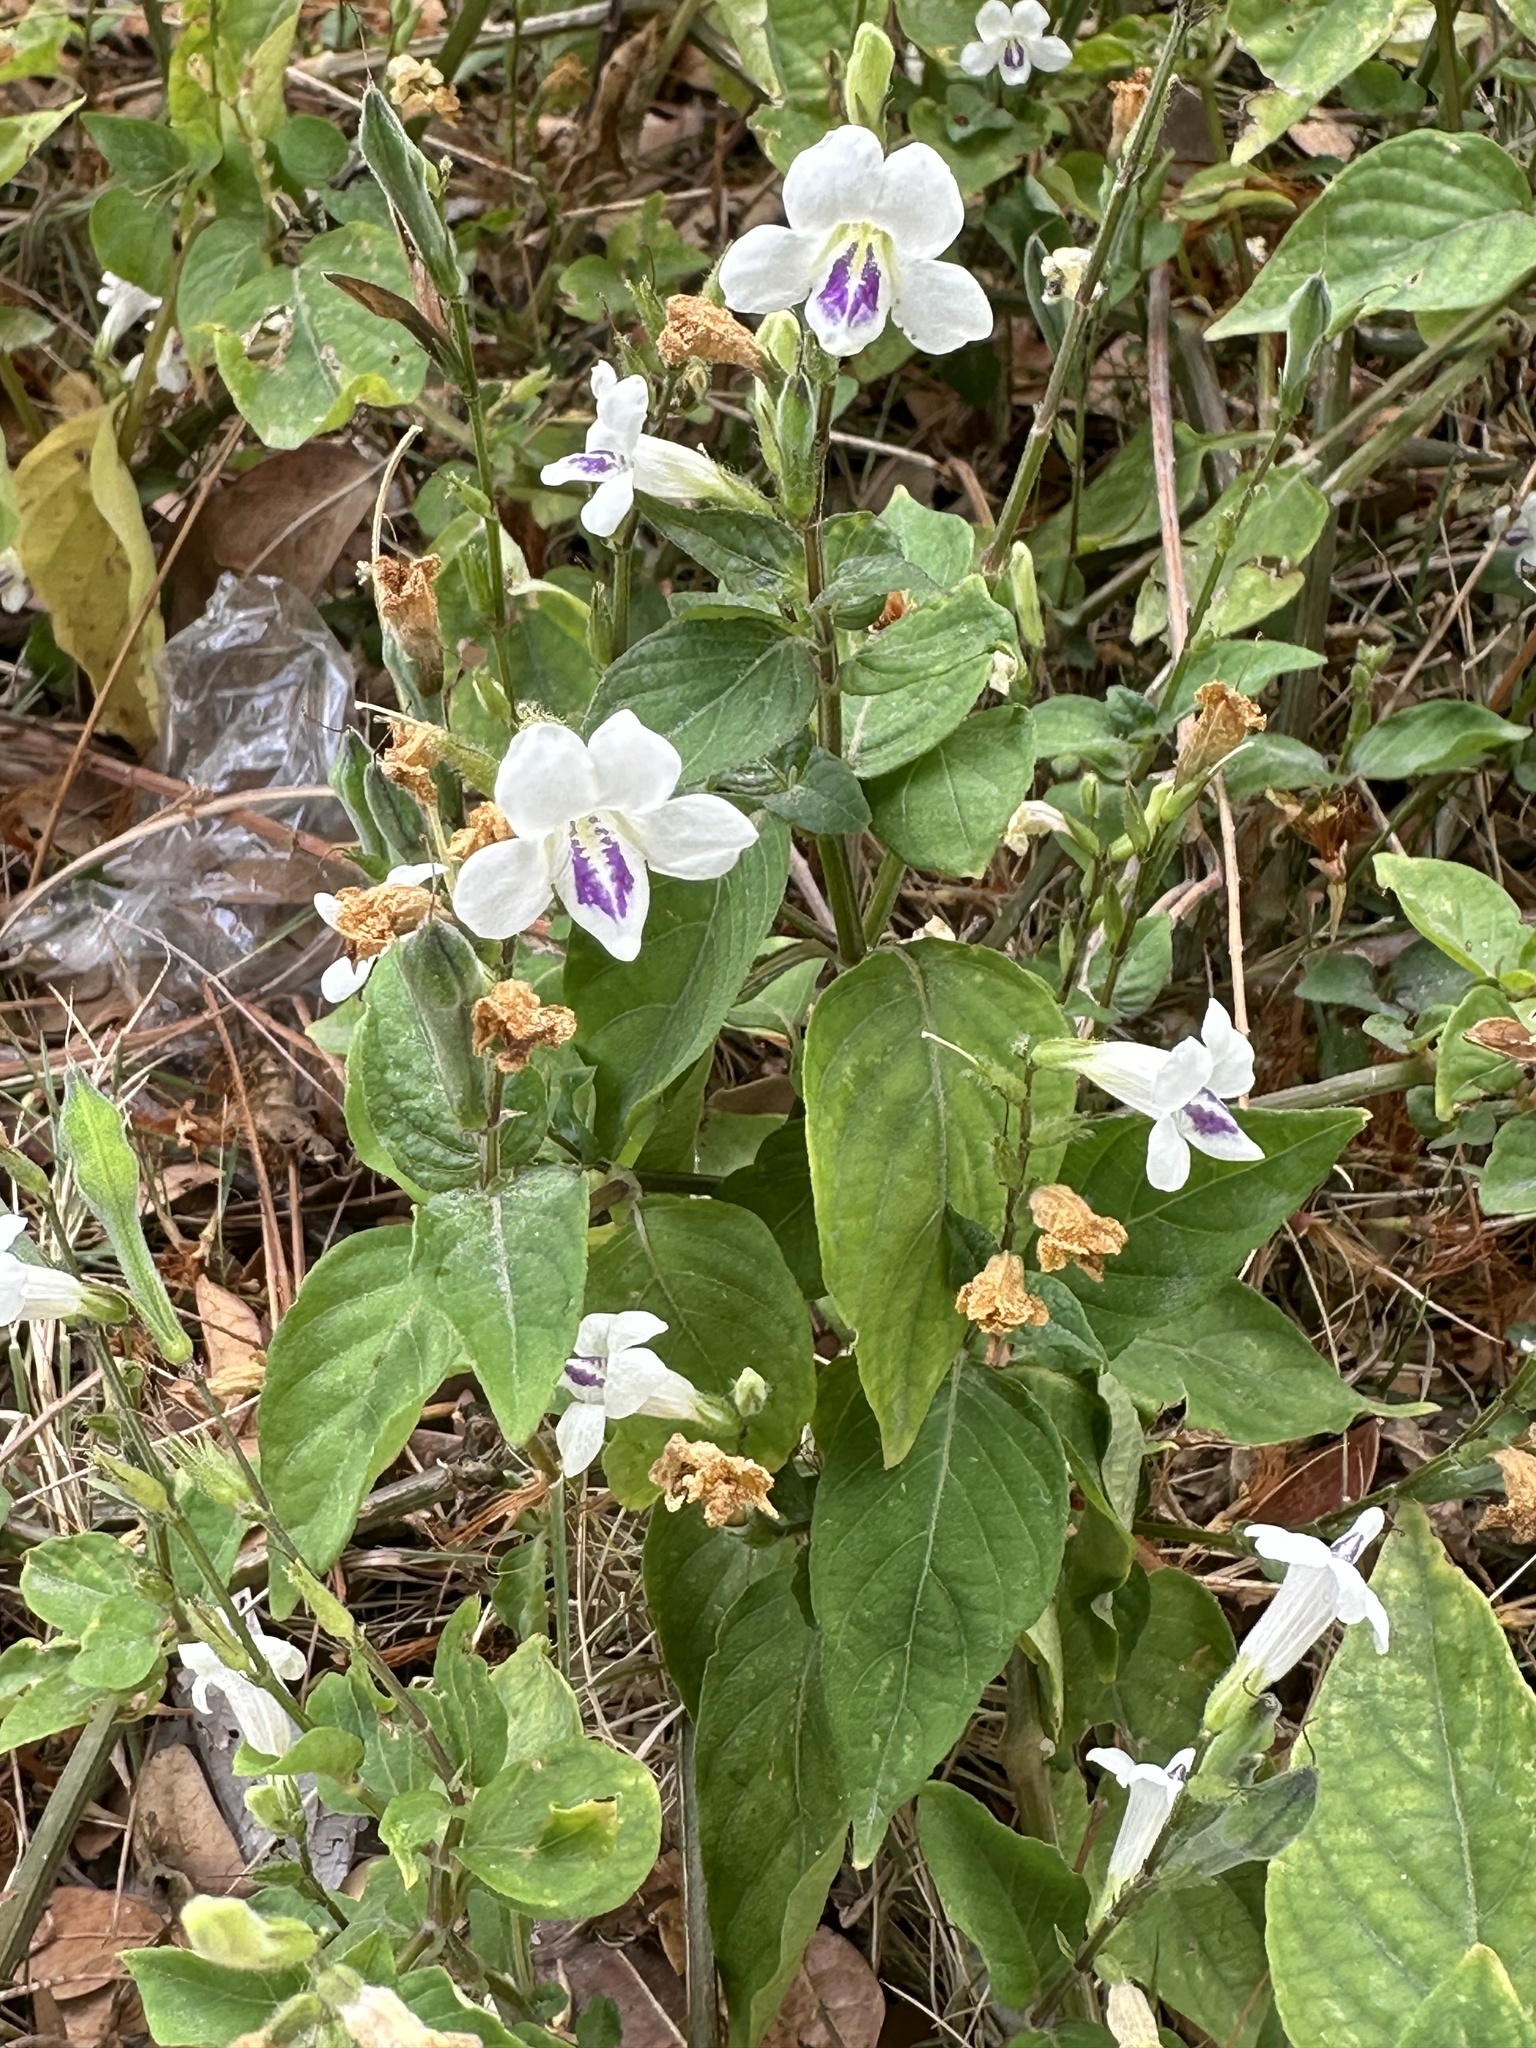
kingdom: Plantae
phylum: Tracheophyta
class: Magnoliopsida
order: Lamiales
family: Acanthaceae
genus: Asystasia
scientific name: Asystasia intrusa
